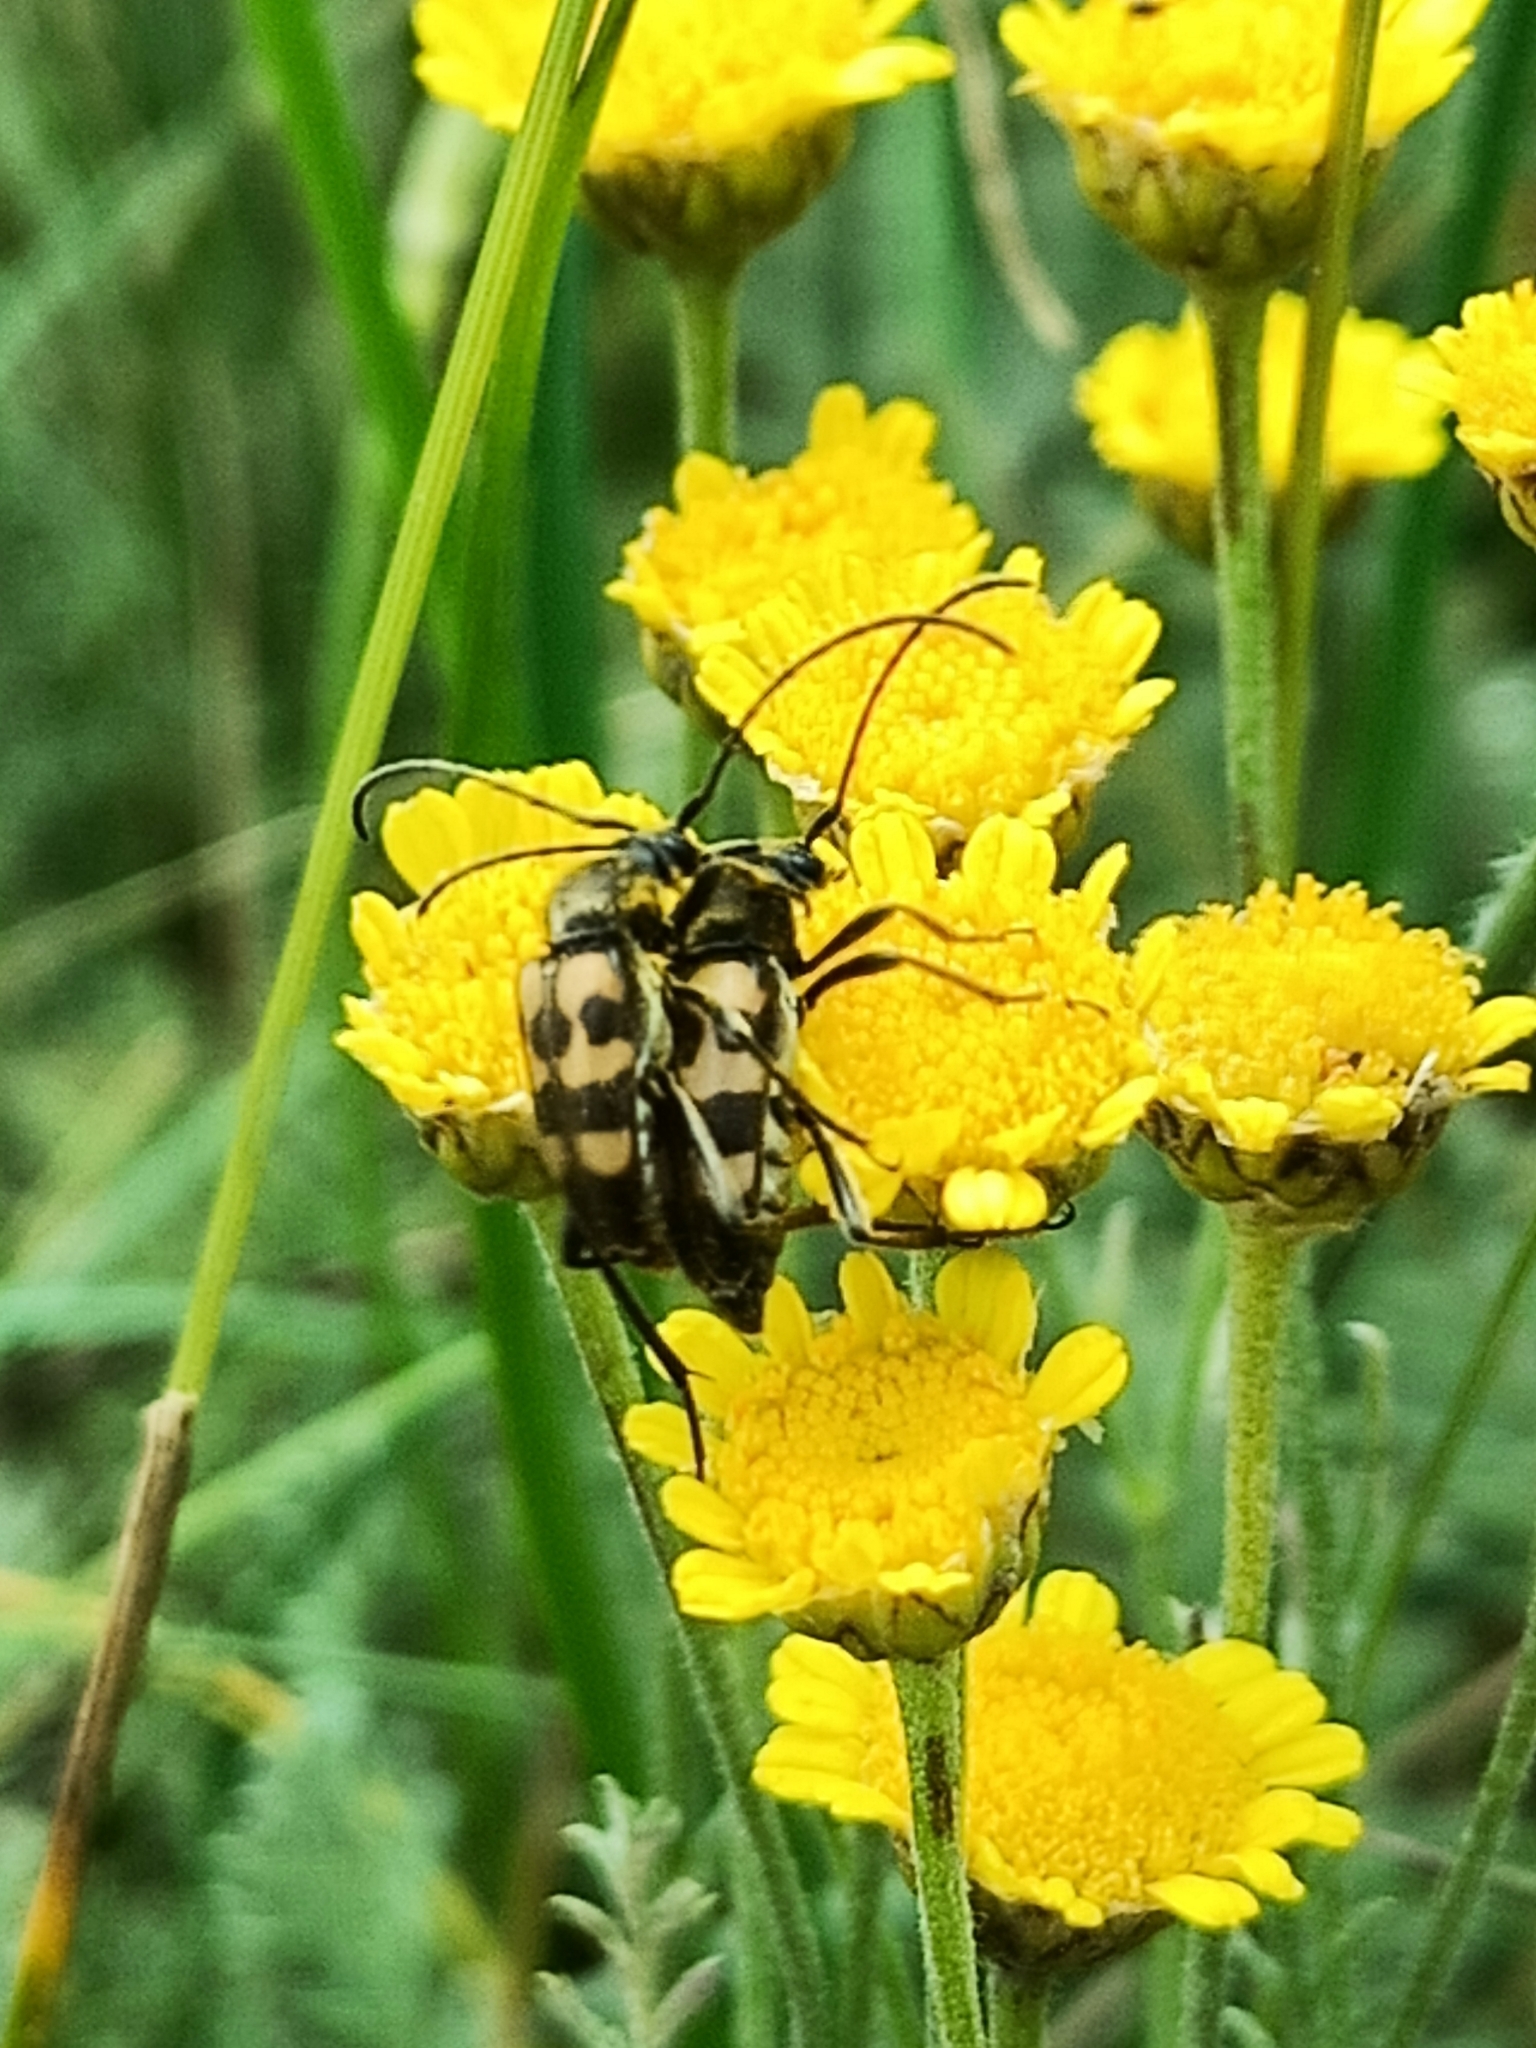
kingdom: Animalia
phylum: Arthropoda
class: Insecta
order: Coleoptera
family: Cerambycidae
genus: Pachytodes
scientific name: Pachytodes
